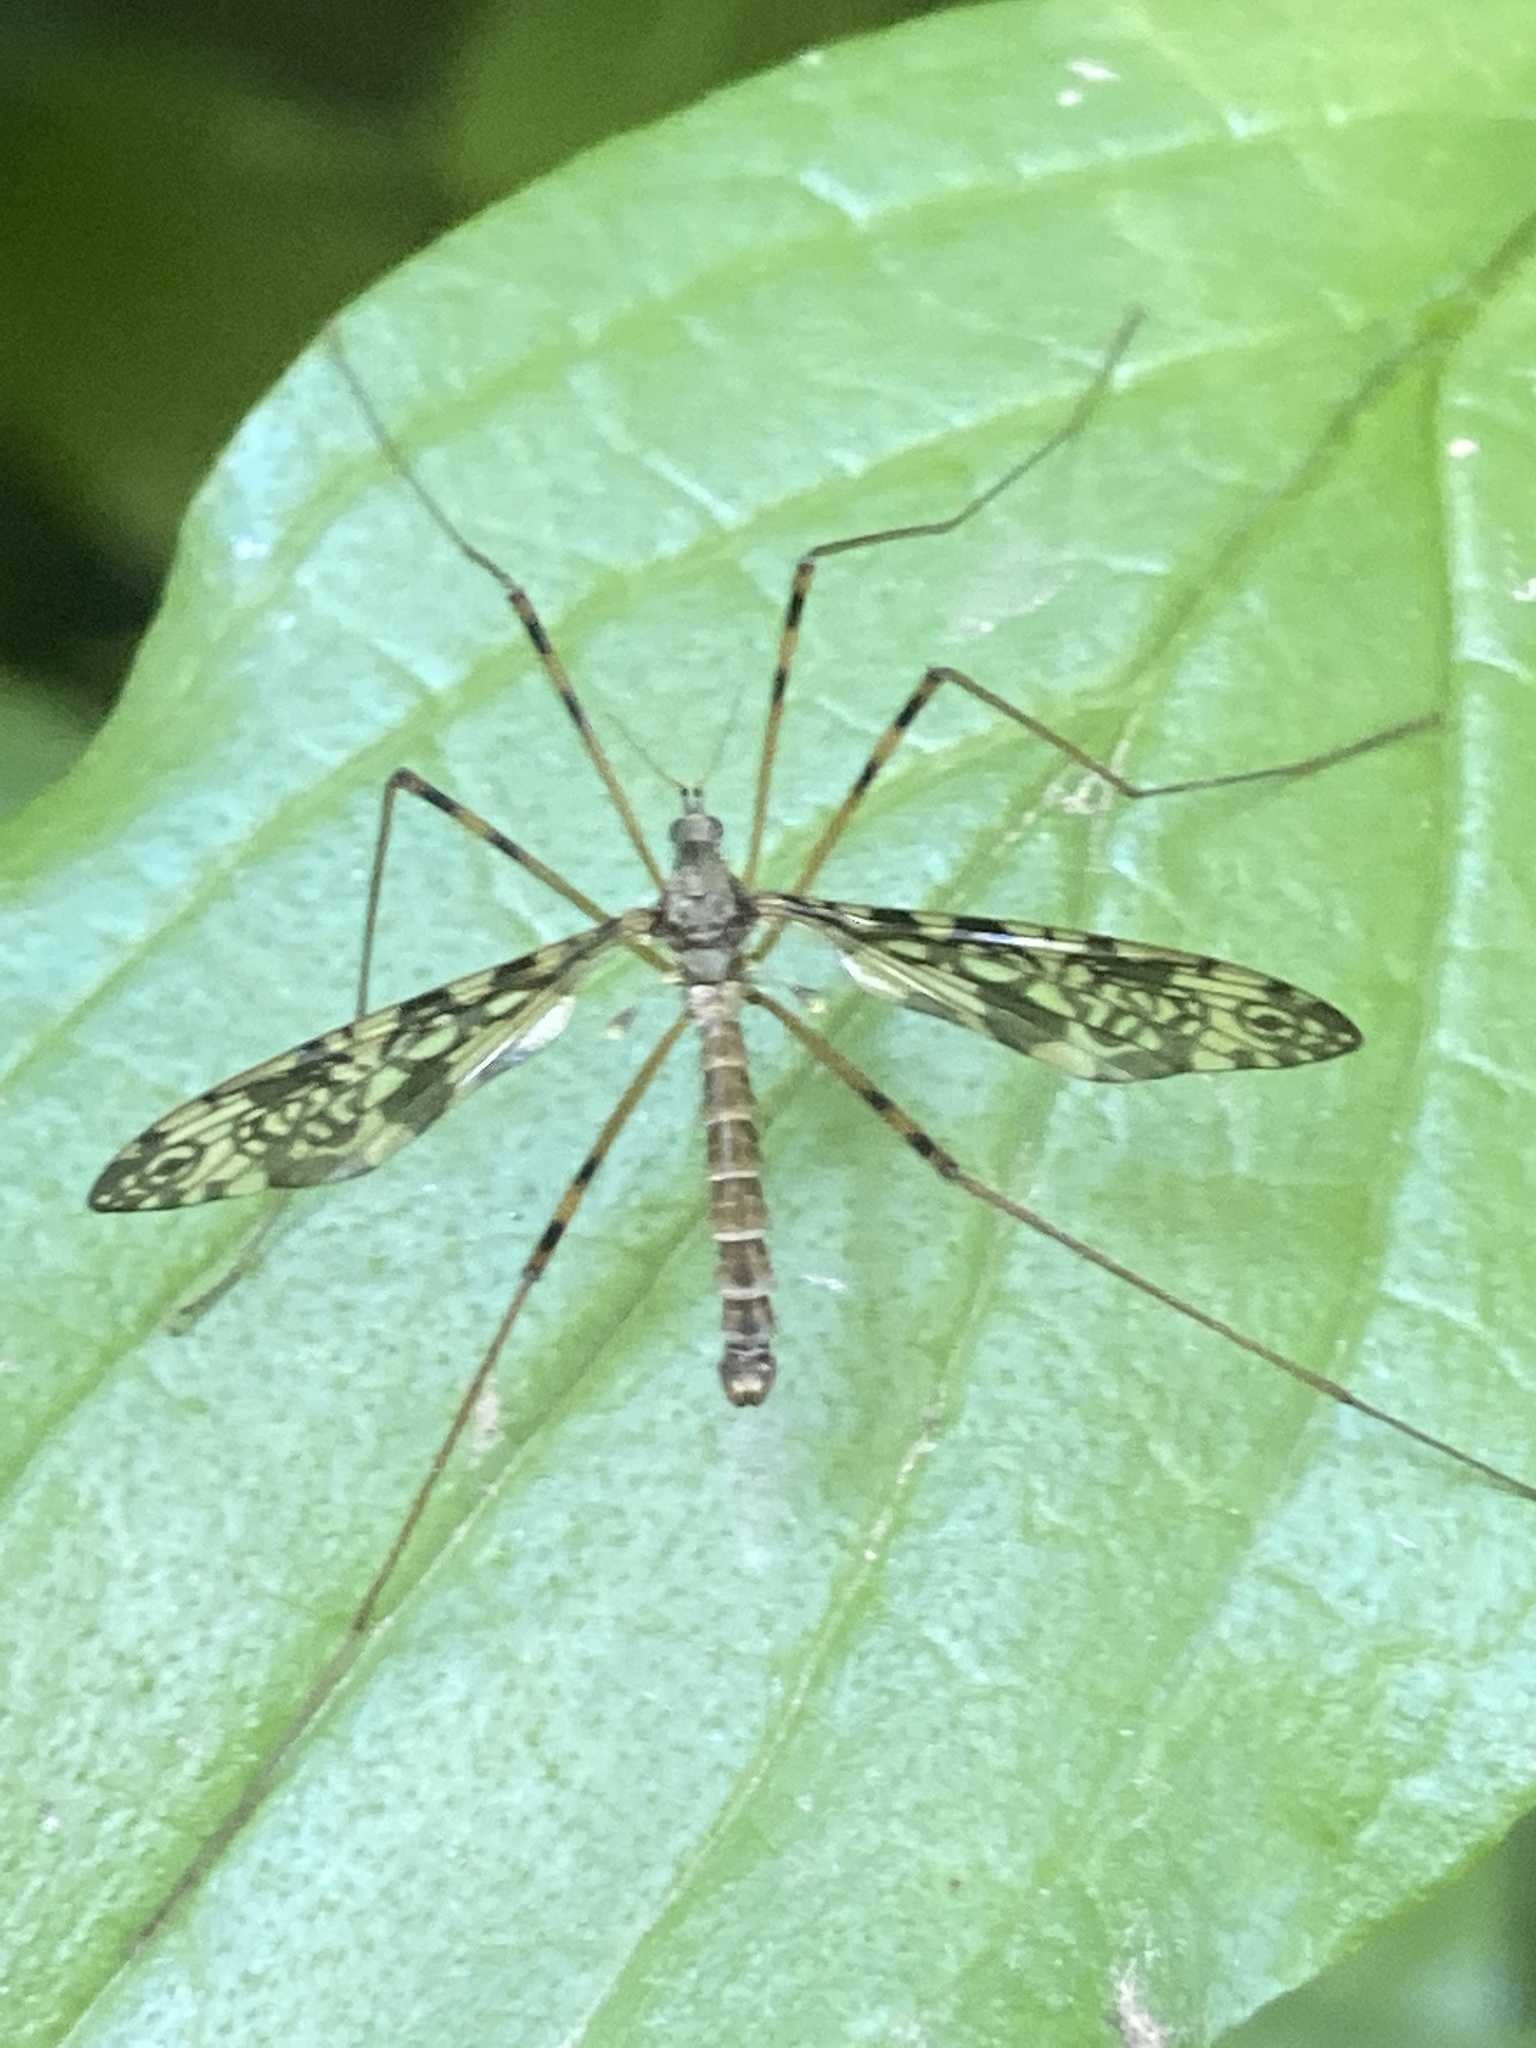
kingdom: Animalia
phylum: Arthropoda
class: Insecta
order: Diptera
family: Limoniidae
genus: Epiphragma
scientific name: Epiphragma ocellare
